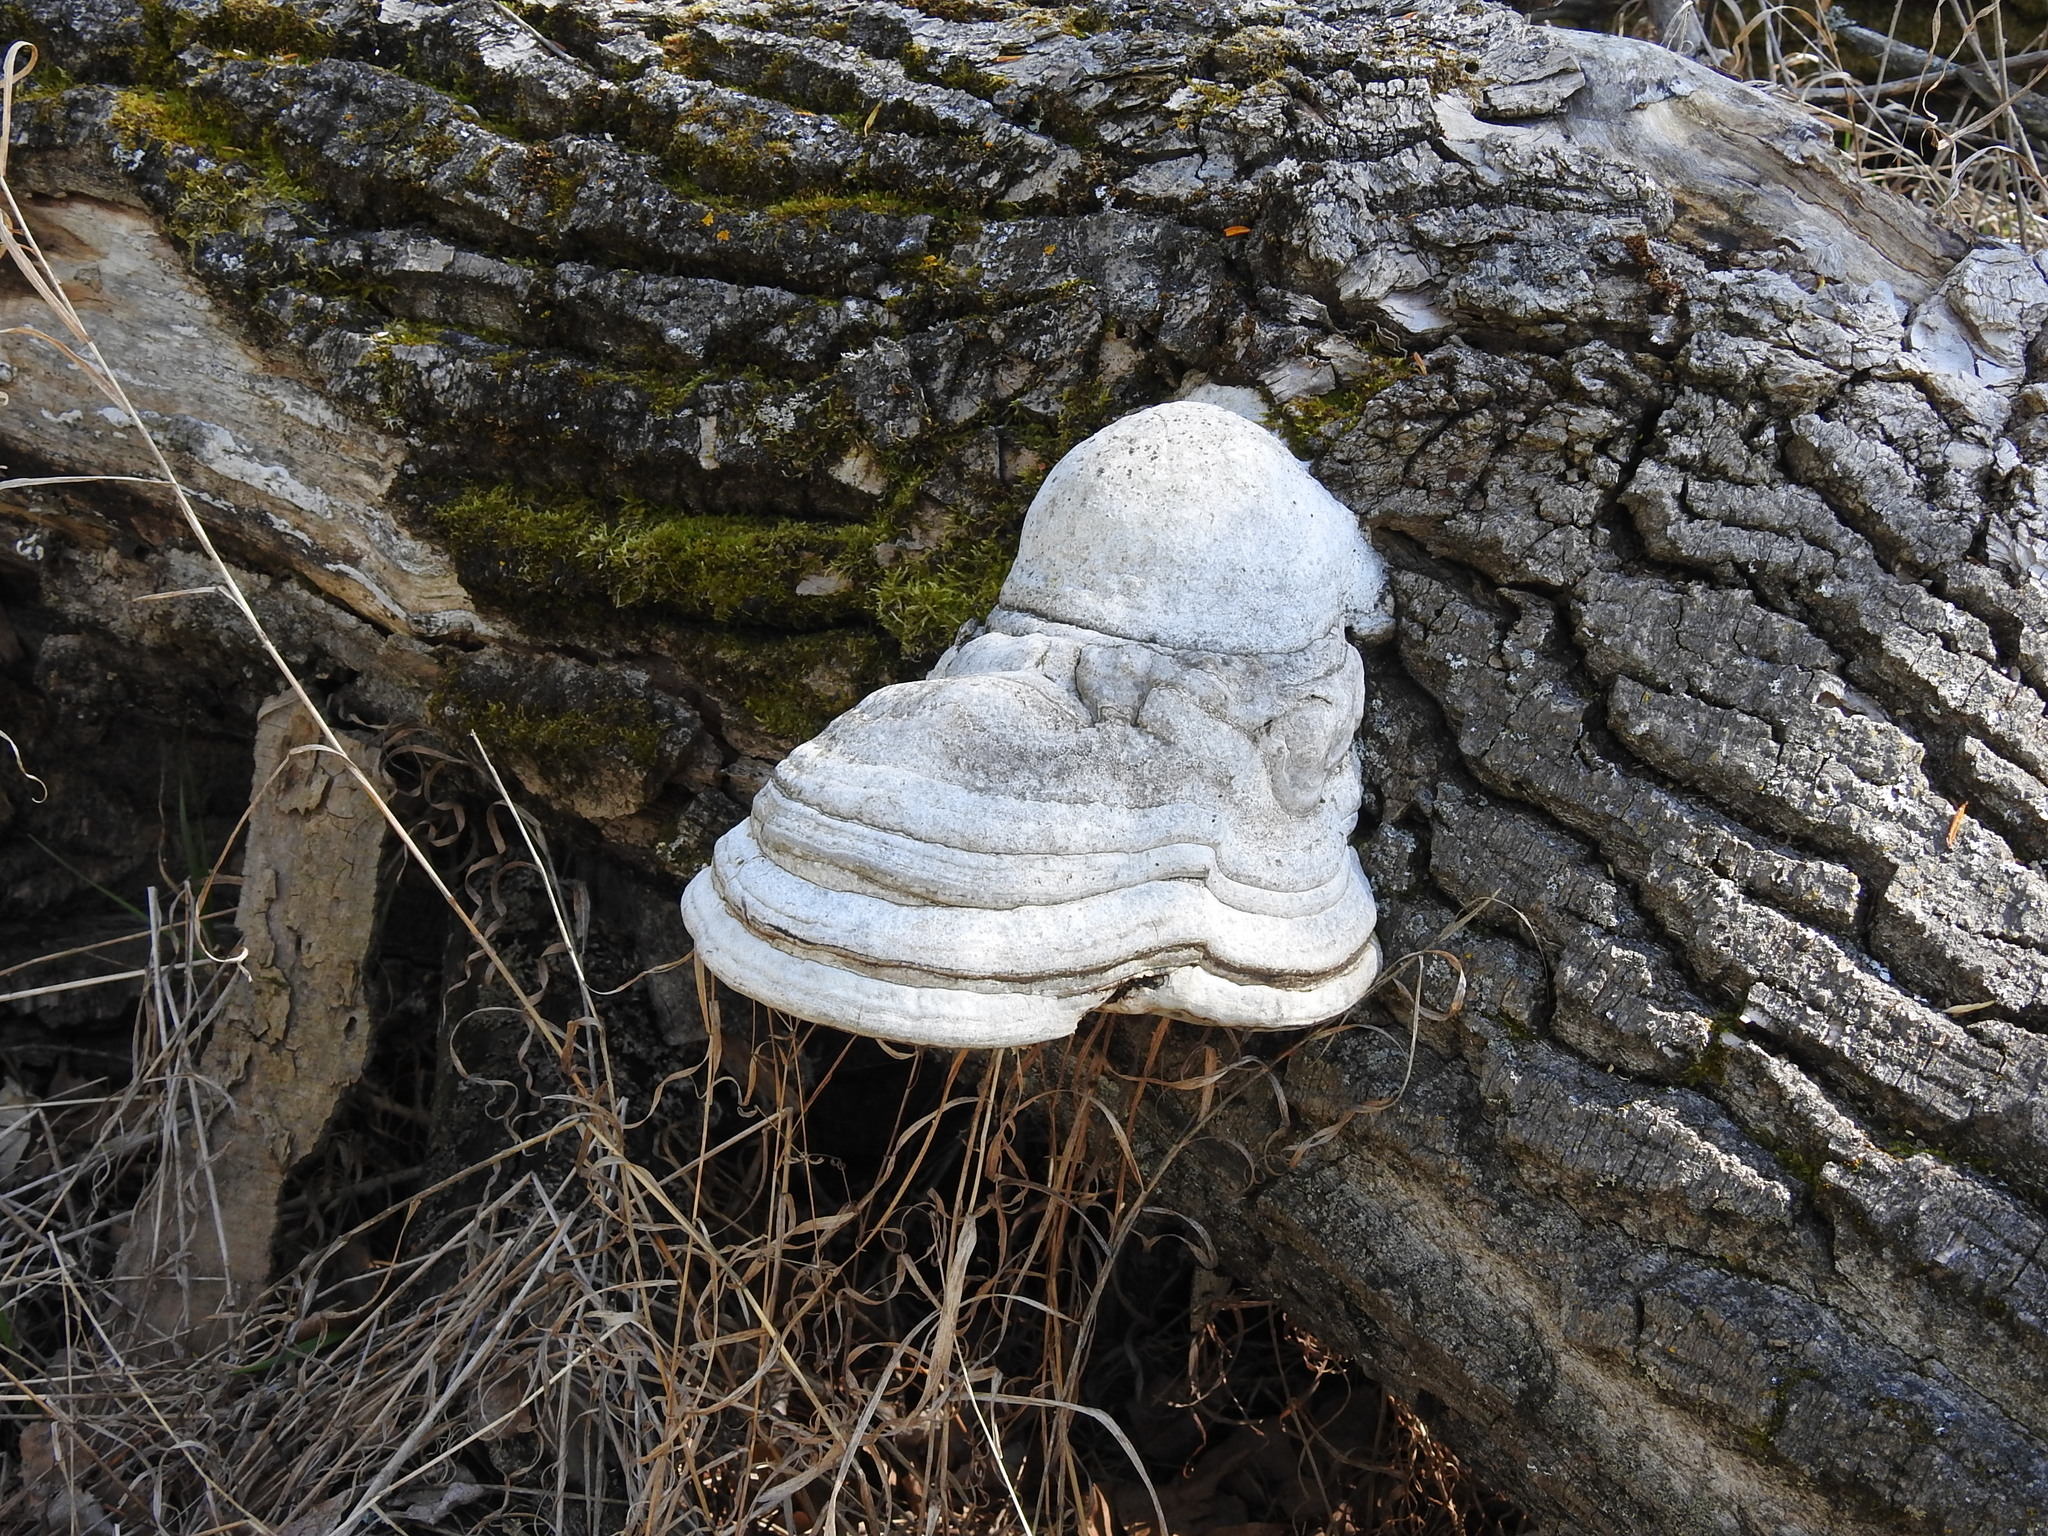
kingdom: Fungi
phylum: Basidiomycota
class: Agaricomycetes
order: Polyporales
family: Polyporaceae
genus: Fomes
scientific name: Fomes fomentarius
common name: Hoof fungus
